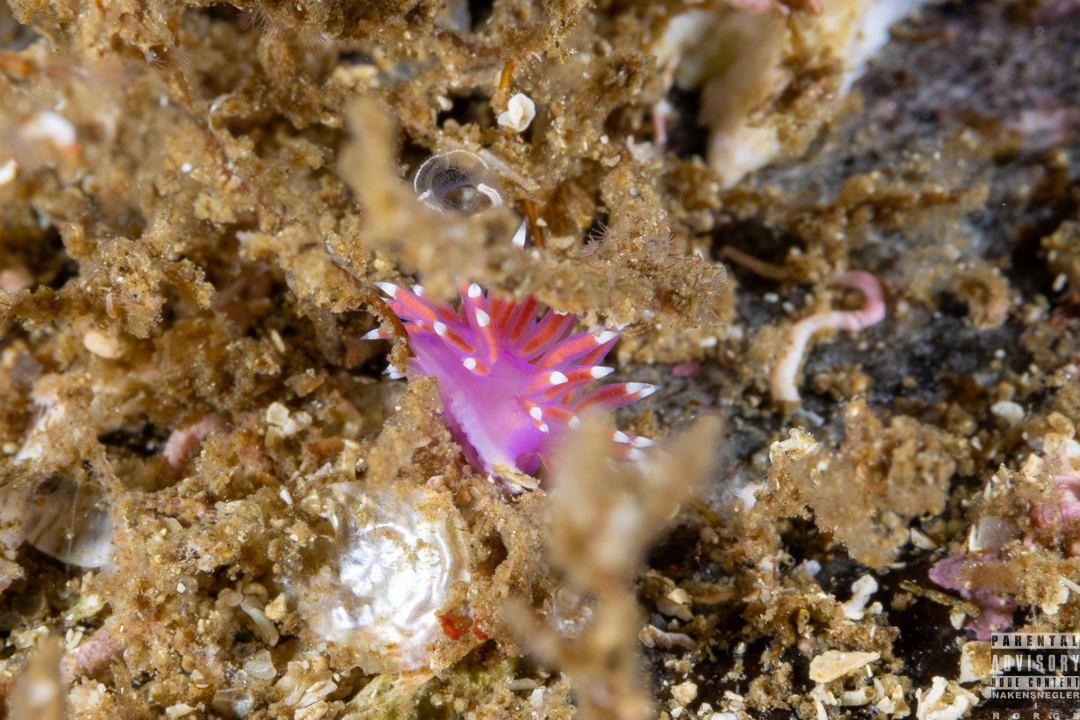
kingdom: Animalia
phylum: Mollusca
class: Gastropoda
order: Nudibranchia
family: Flabellinidae
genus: Edmundsella
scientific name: Edmundsella pedata
